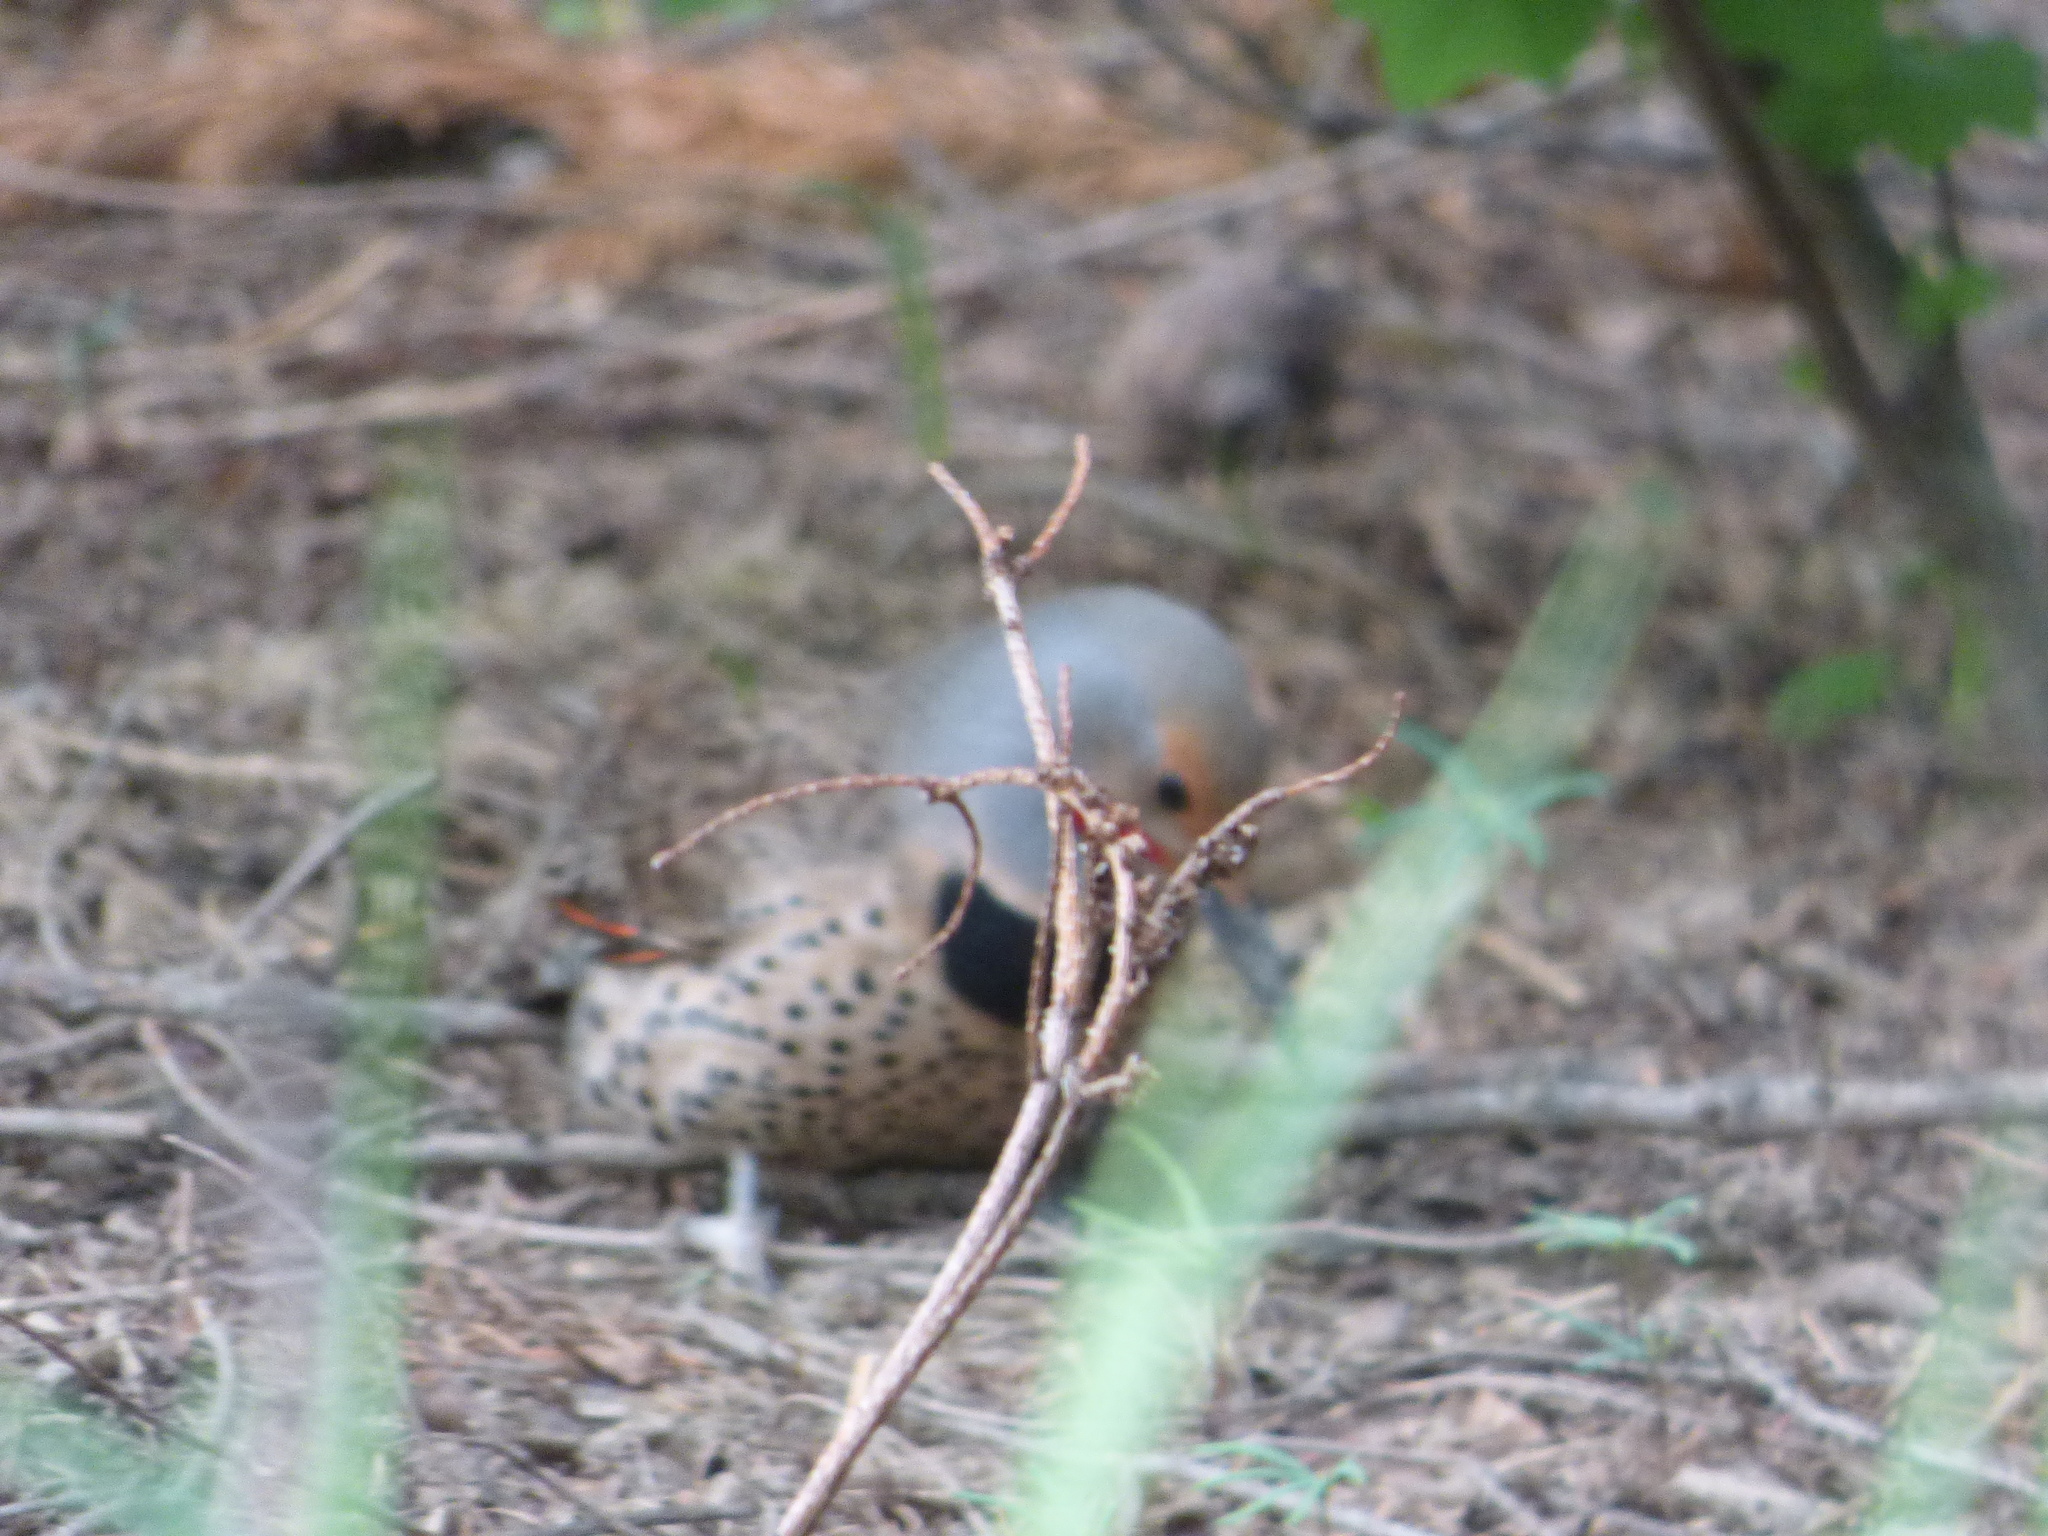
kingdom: Animalia
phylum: Chordata
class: Aves
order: Piciformes
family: Picidae
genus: Colaptes
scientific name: Colaptes auratus
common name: Northern flicker
